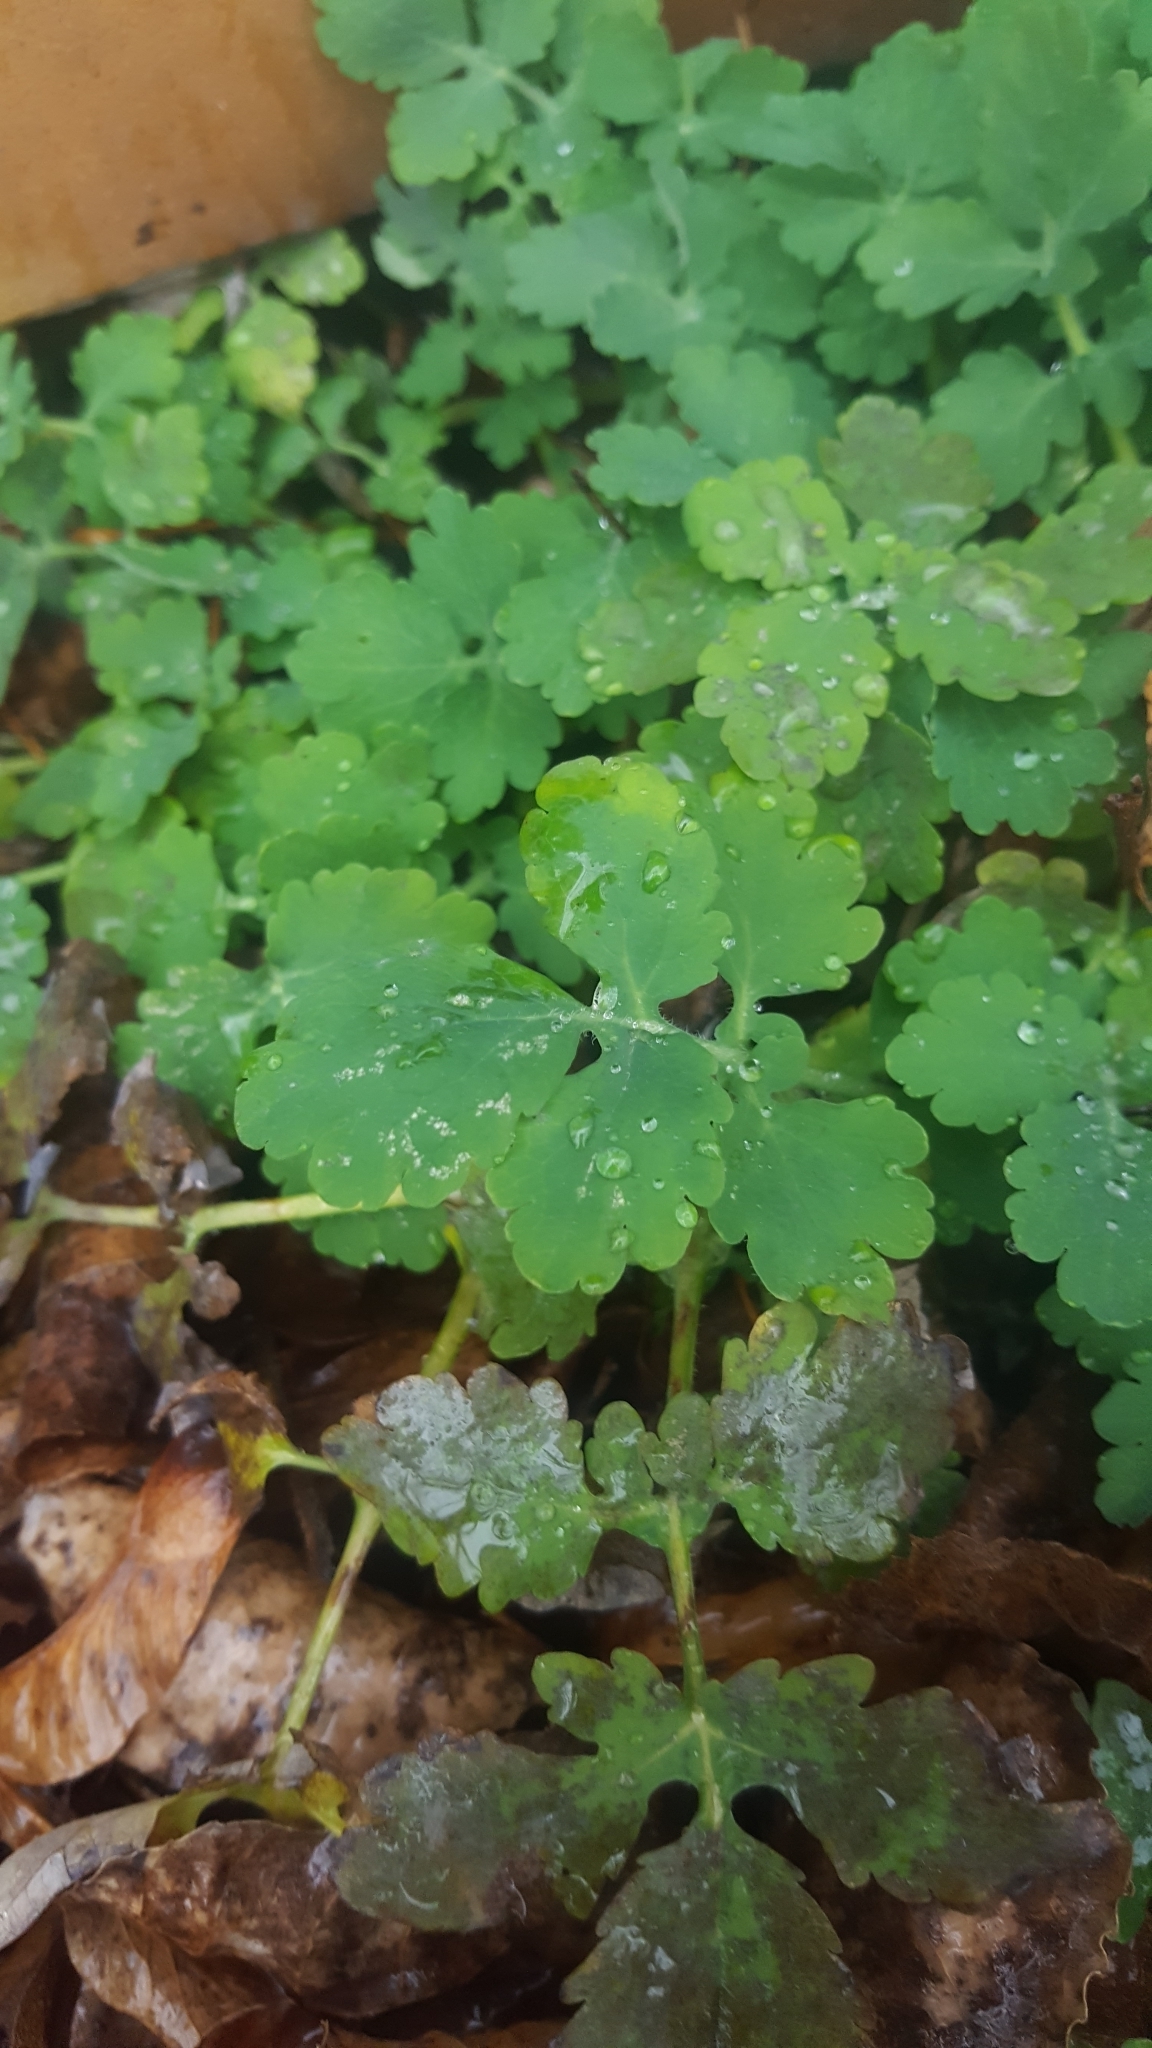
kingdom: Plantae
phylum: Tracheophyta
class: Magnoliopsida
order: Ranunculales
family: Papaveraceae
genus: Chelidonium
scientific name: Chelidonium majus
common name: Greater celandine
